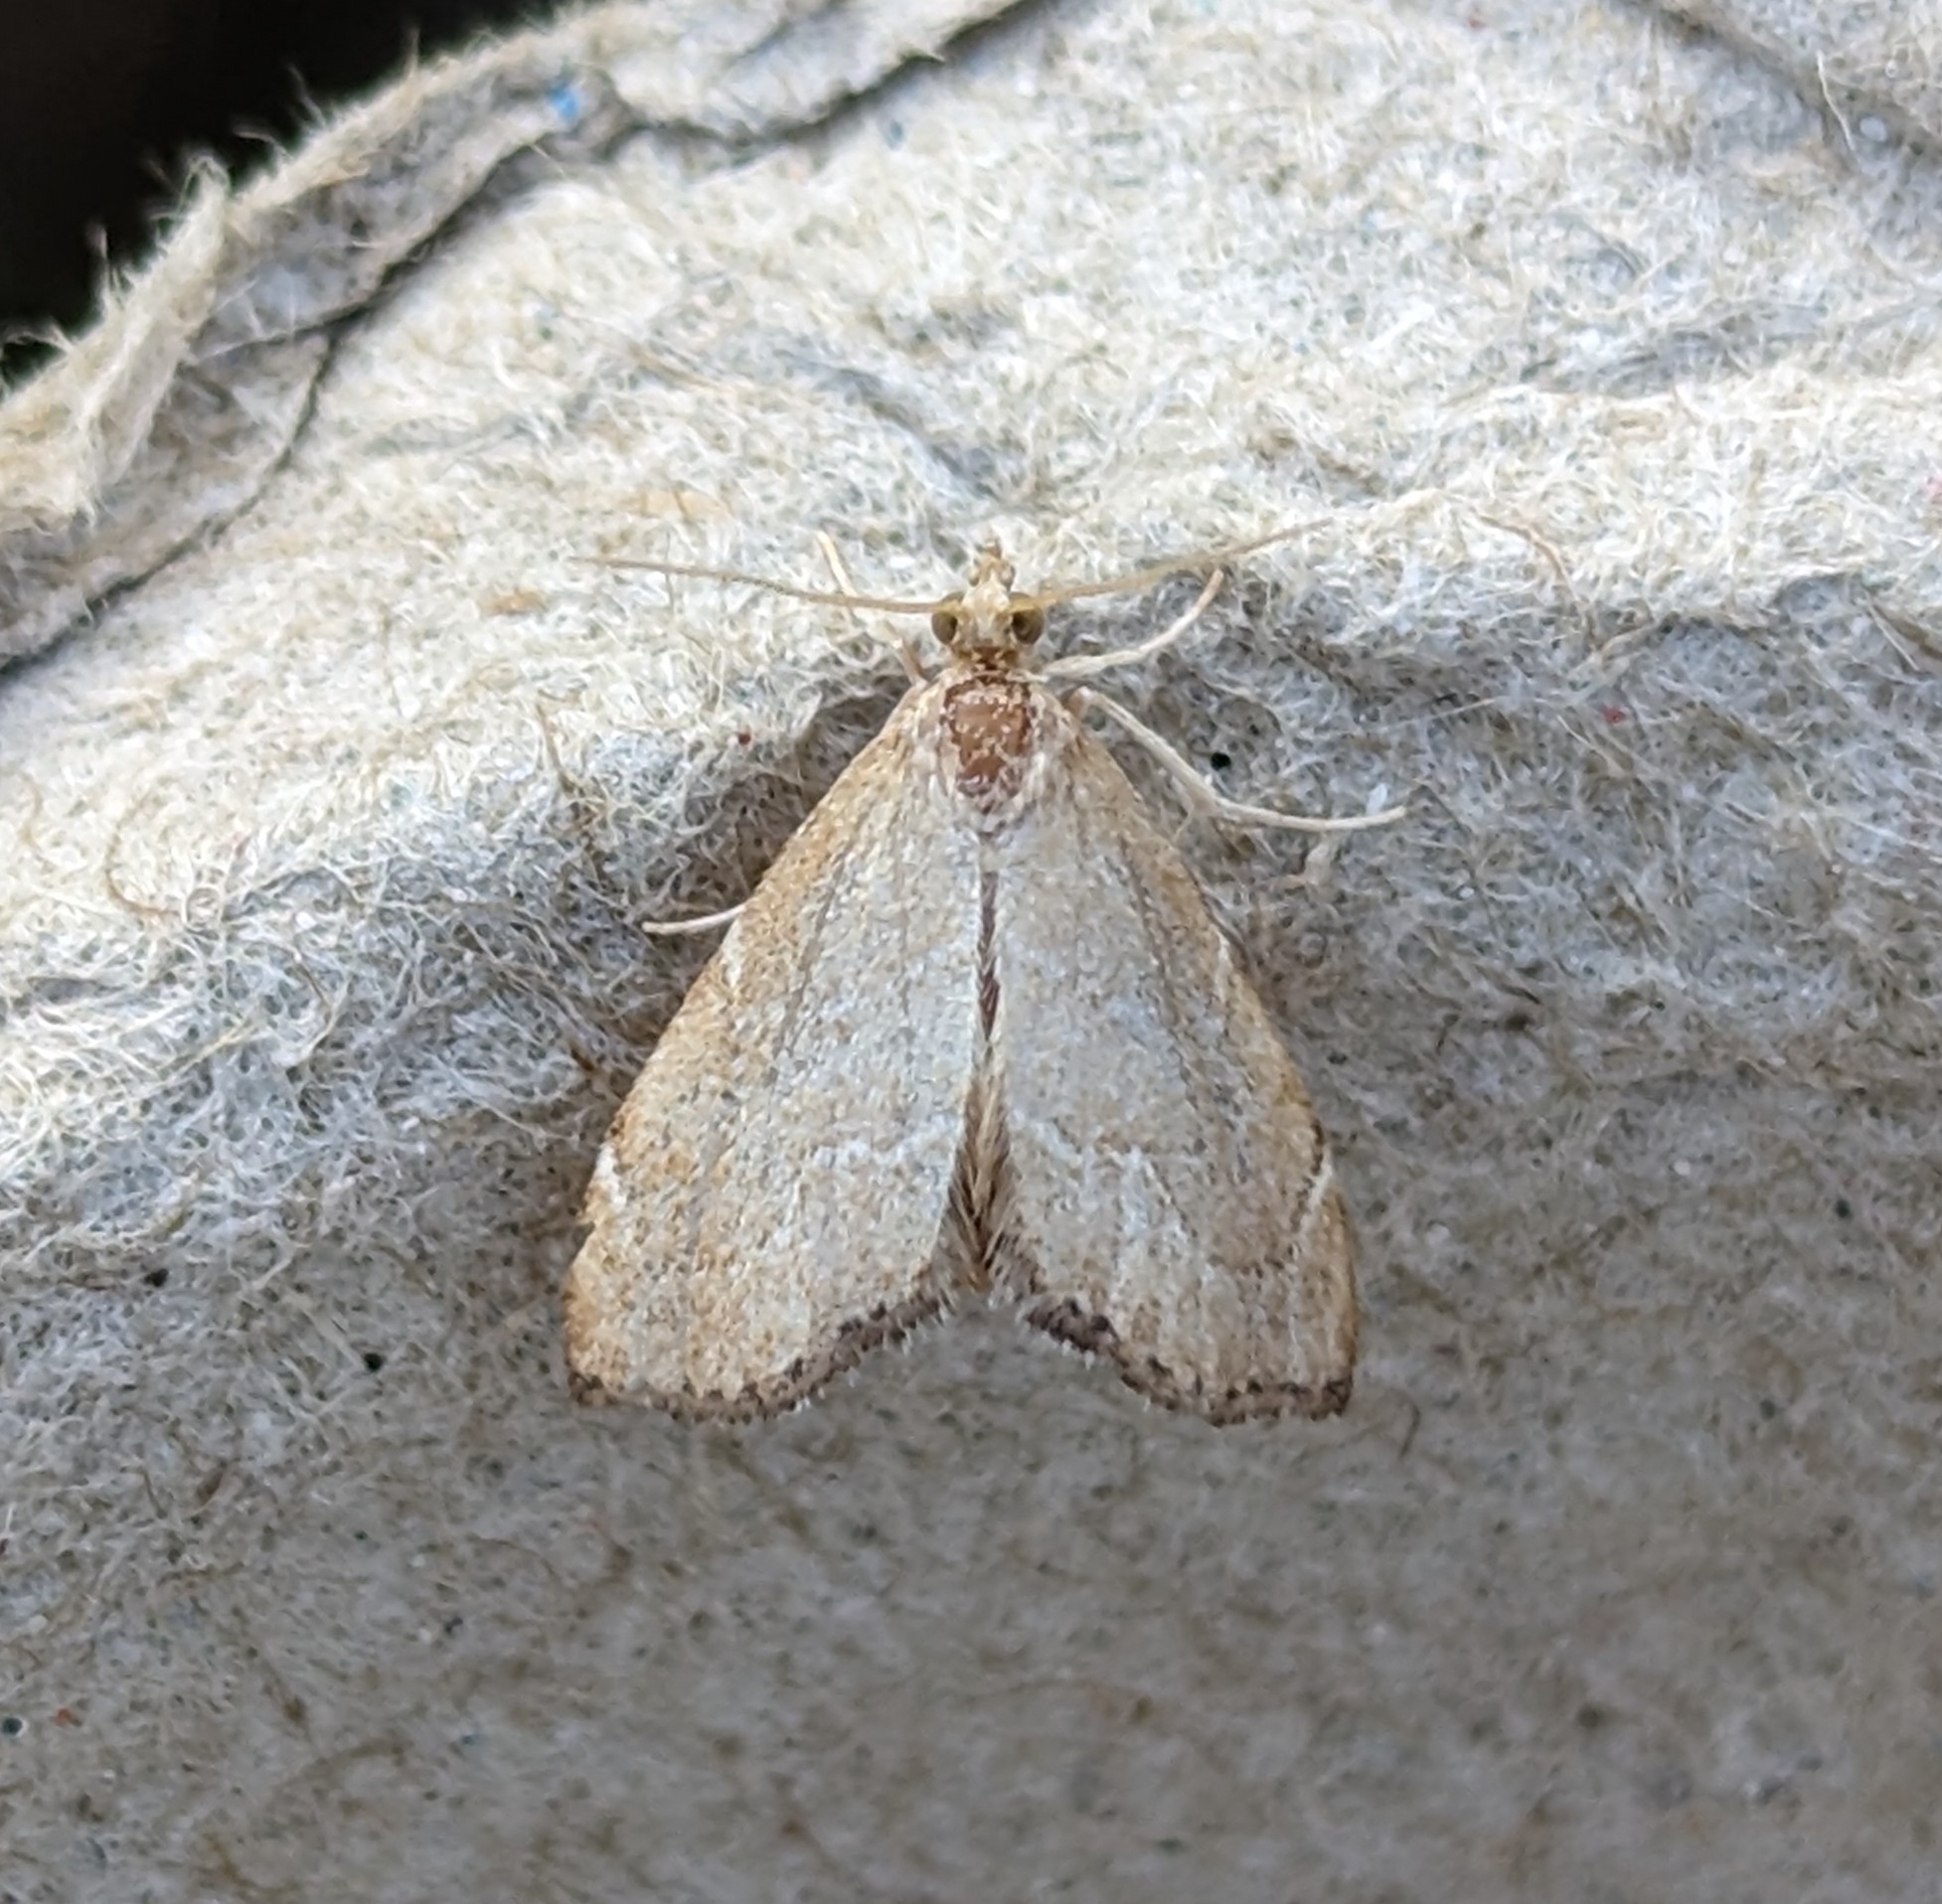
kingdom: Animalia
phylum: Arthropoda
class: Insecta
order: Lepidoptera
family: Crambidae
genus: Stegea
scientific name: Stegea salutalis
